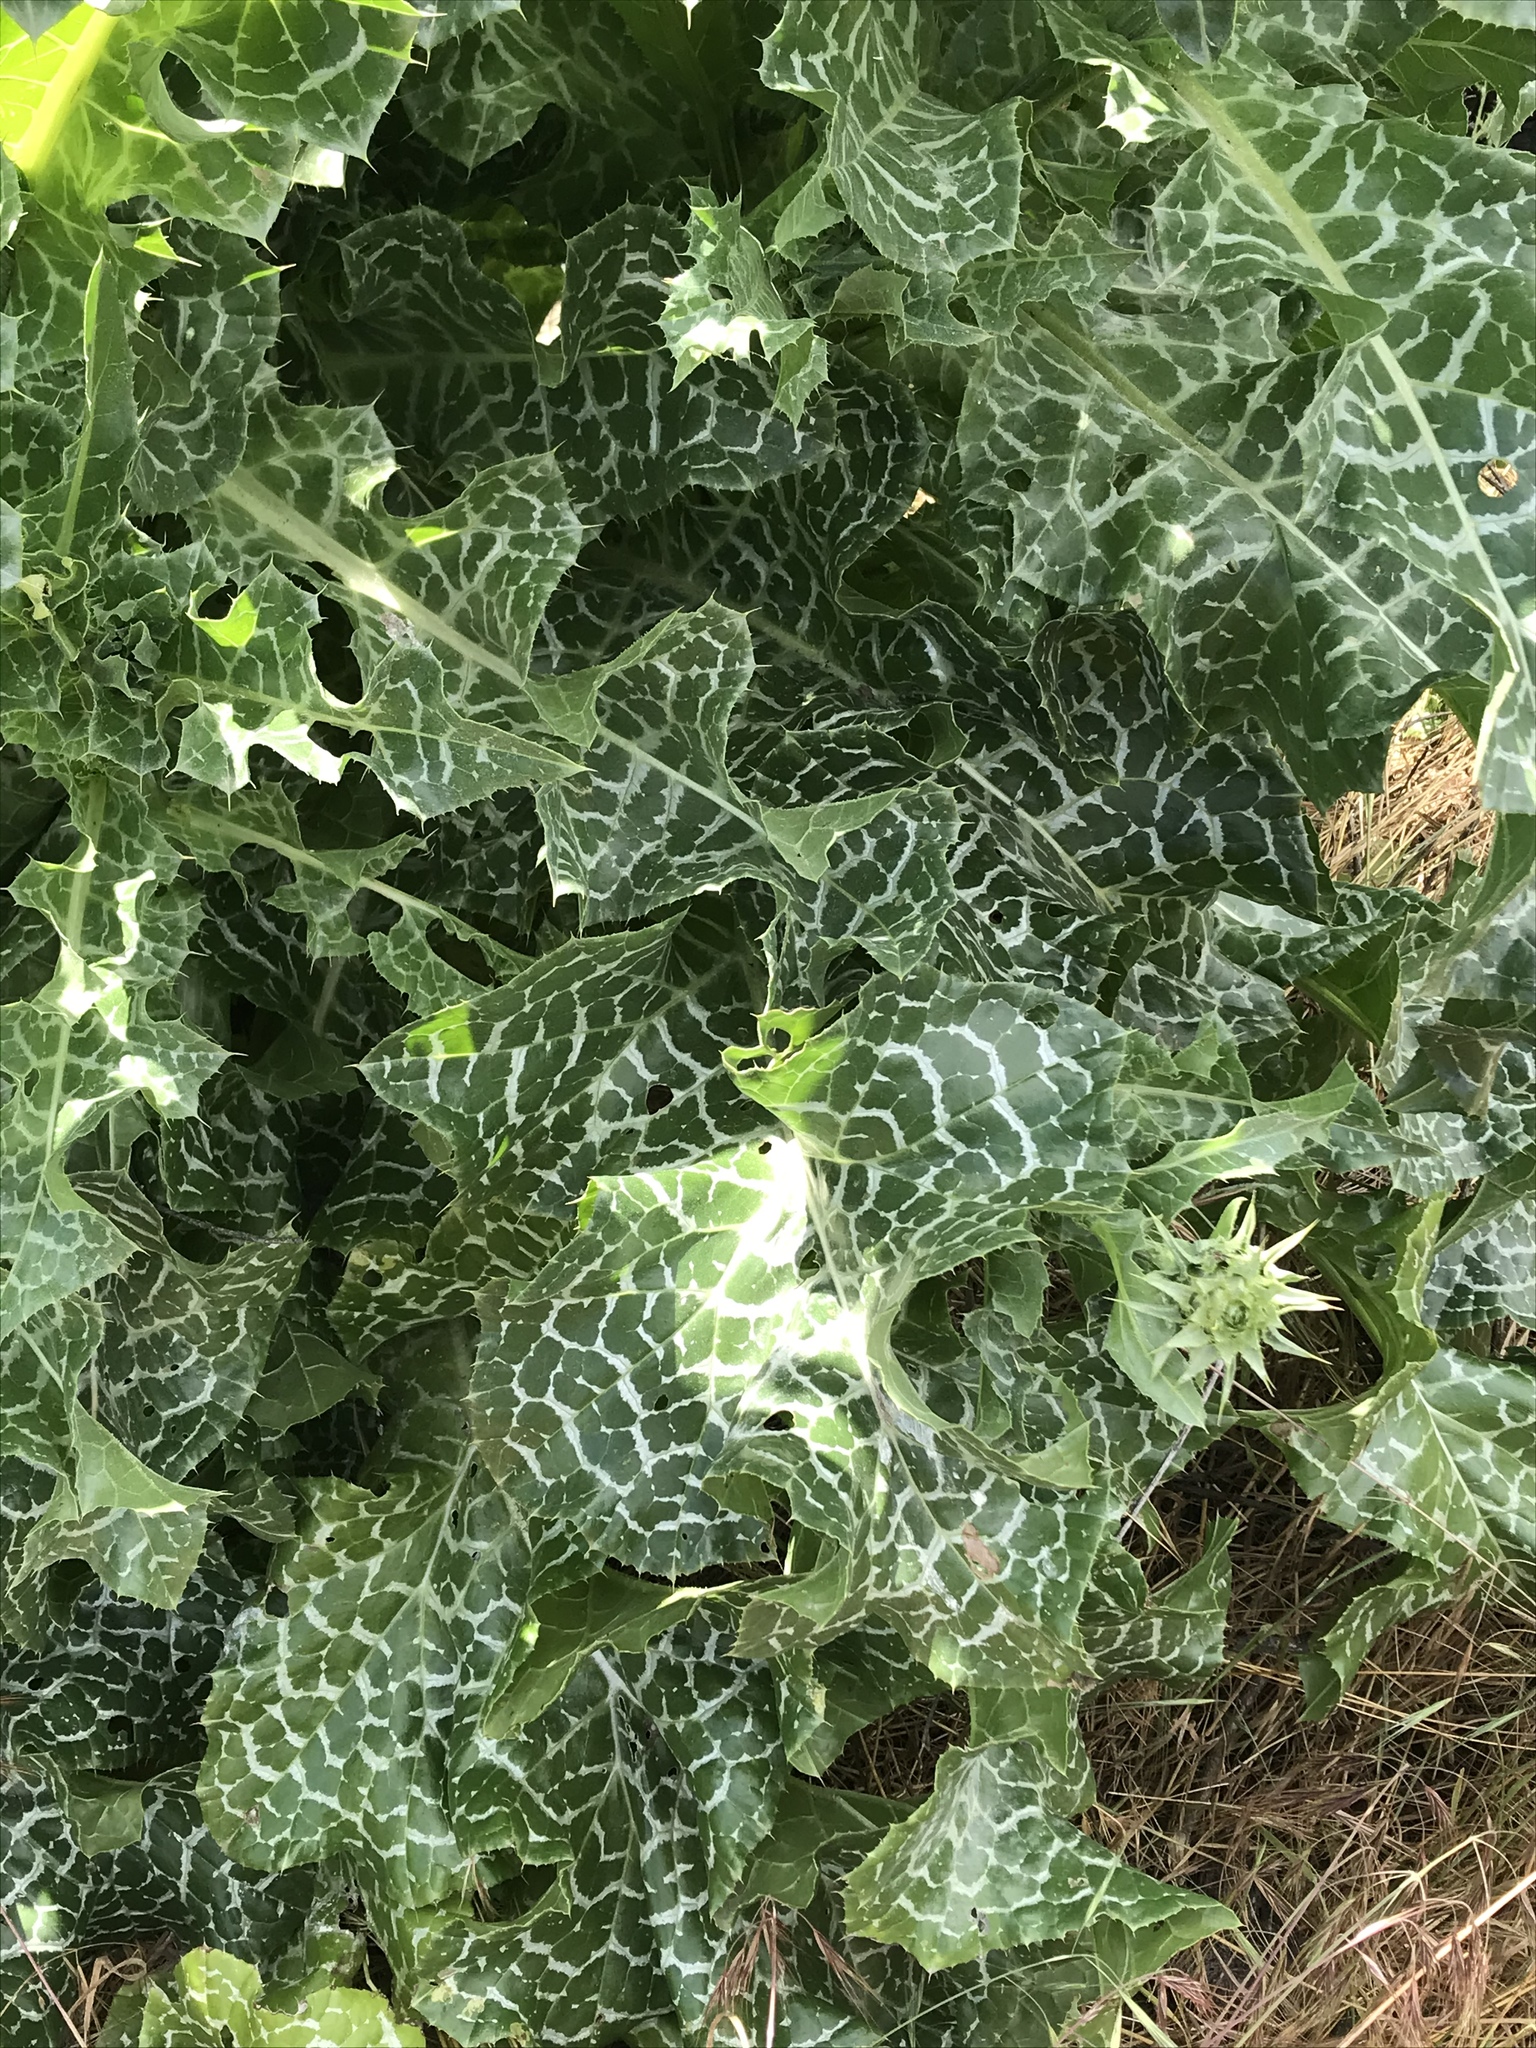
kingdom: Plantae
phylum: Tracheophyta
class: Magnoliopsida
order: Asterales
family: Asteraceae
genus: Silybum
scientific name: Silybum marianum
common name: Milk thistle
